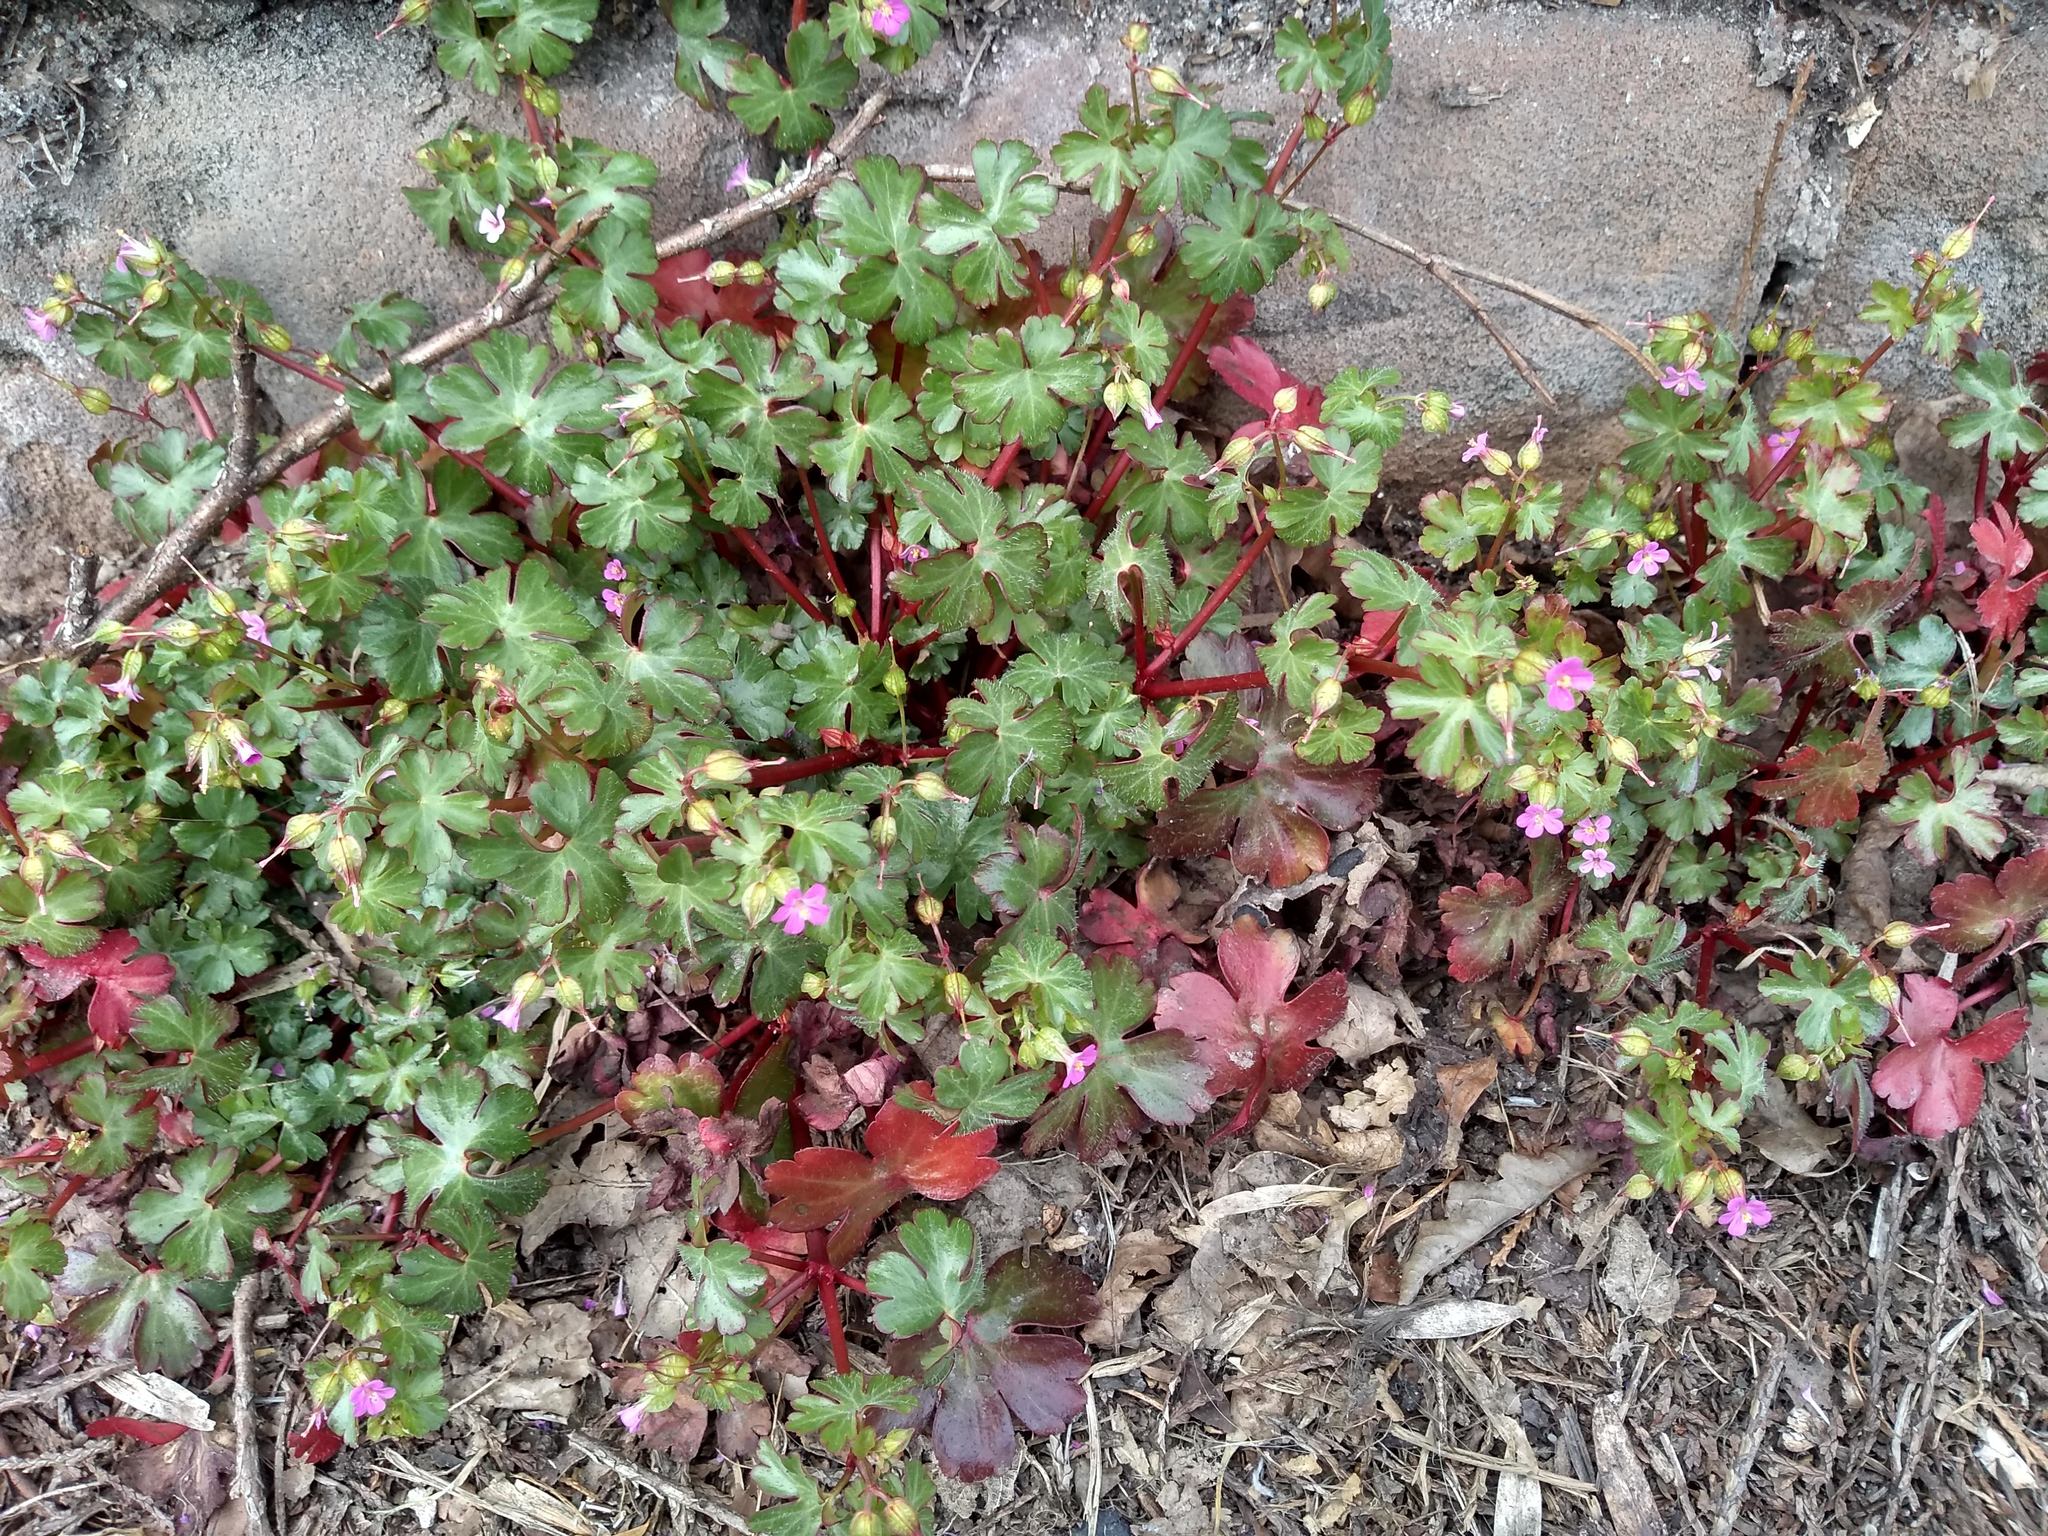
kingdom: Plantae
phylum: Tracheophyta
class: Magnoliopsida
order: Geraniales
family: Geraniaceae
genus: Geranium
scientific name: Geranium lucidum
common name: Shining crane's-bill
